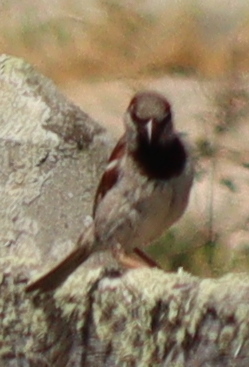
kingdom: Animalia
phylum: Chordata
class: Aves
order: Passeriformes
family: Passeridae
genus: Passer
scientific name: Passer domesticus
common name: House sparrow
